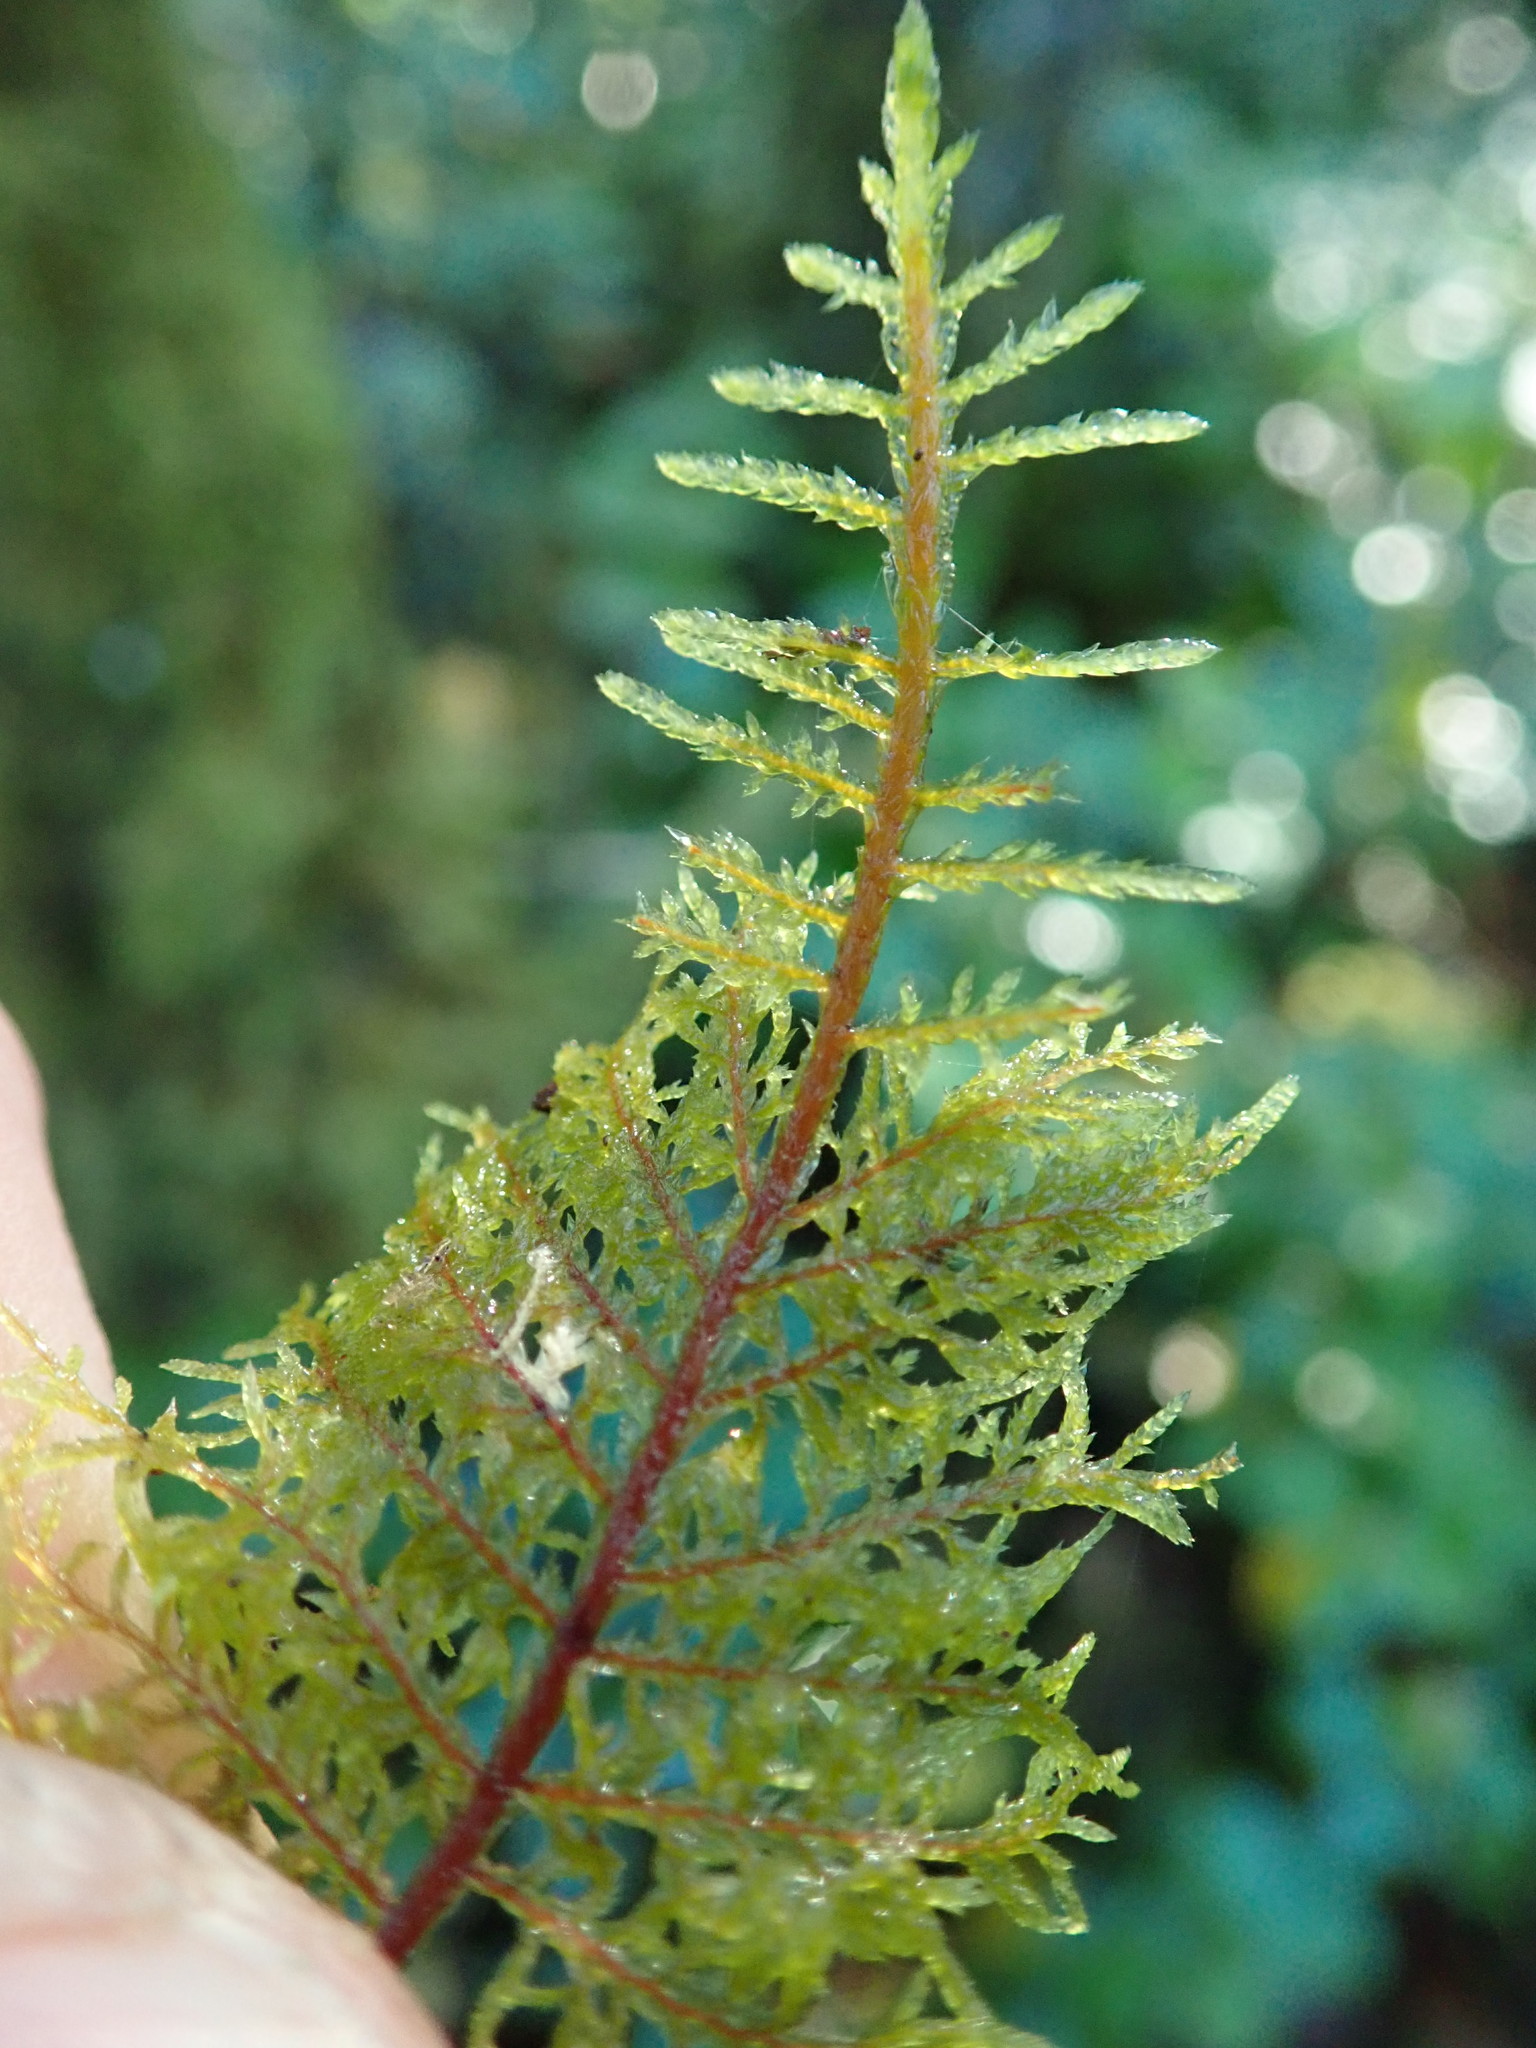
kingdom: Plantae
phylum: Bryophyta
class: Bryopsida
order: Hypnales
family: Hylocomiaceae
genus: Hylocomium
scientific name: Hylocomium splendens
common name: Stairstep moss
